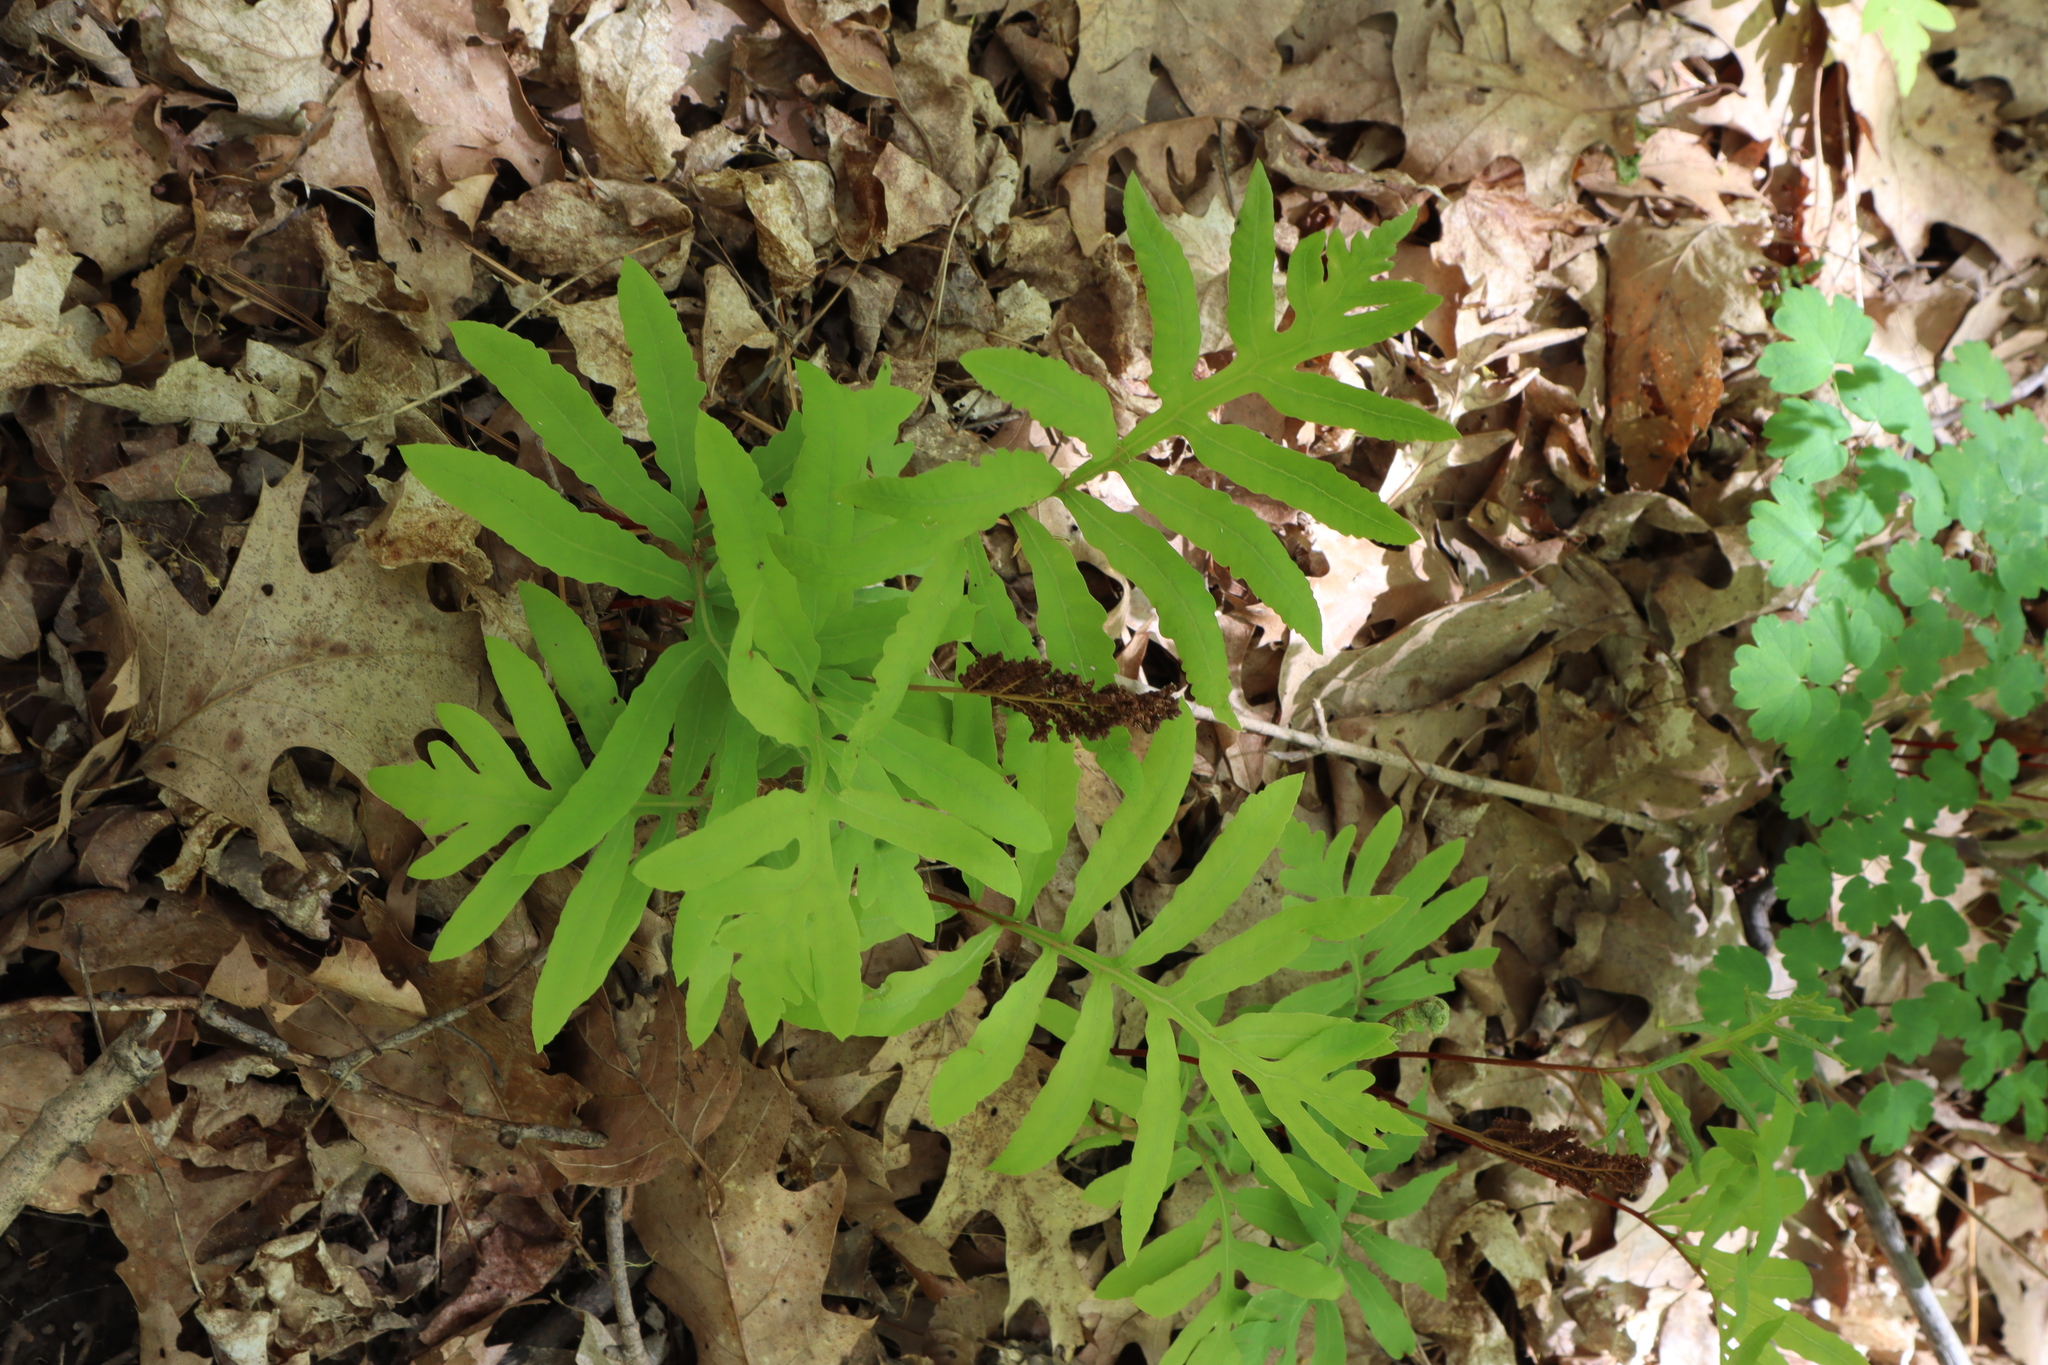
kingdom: Plantae
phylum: Tracheophyta
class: Polypodiopsida
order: Polypodiales
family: Onocleaceae
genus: Onoclea
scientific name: Onoclea sensibilis
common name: Sensitive fern
